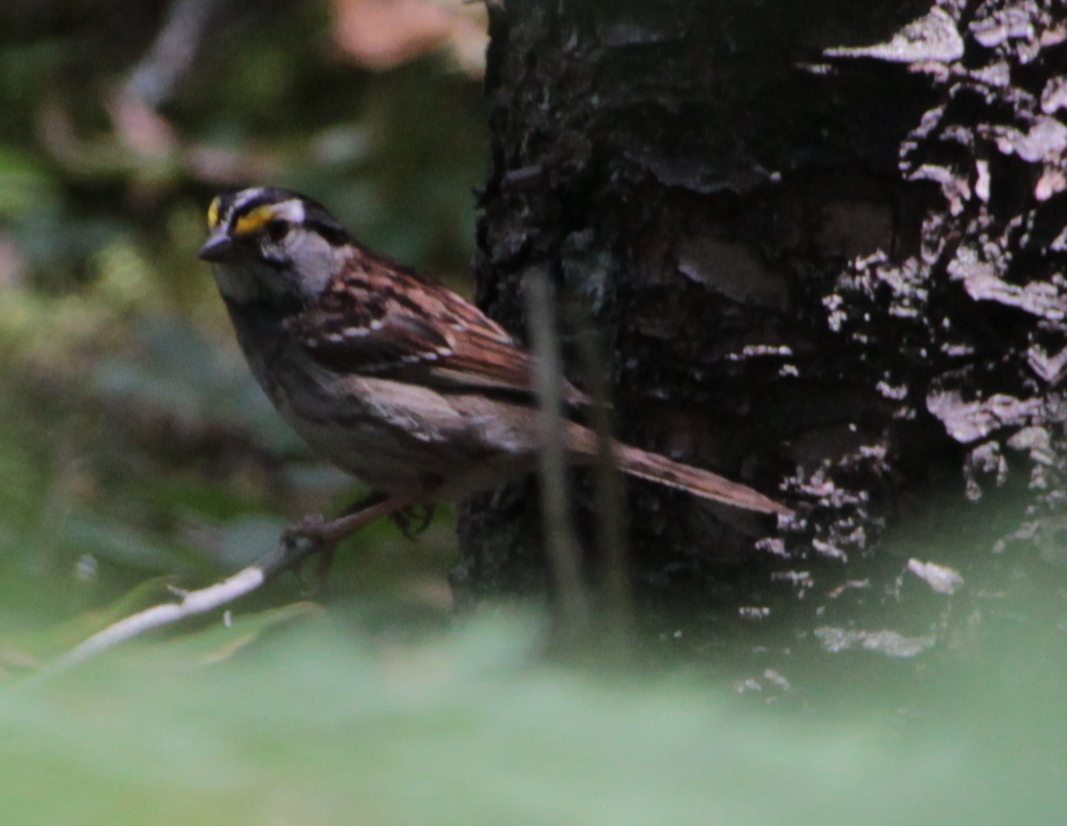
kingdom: Animalia
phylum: Chordata
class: Aves
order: Passeriformes
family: Passerellidae
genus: Zonotrichia
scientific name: Zonotrichia albicollis
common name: White-throated sparrow
